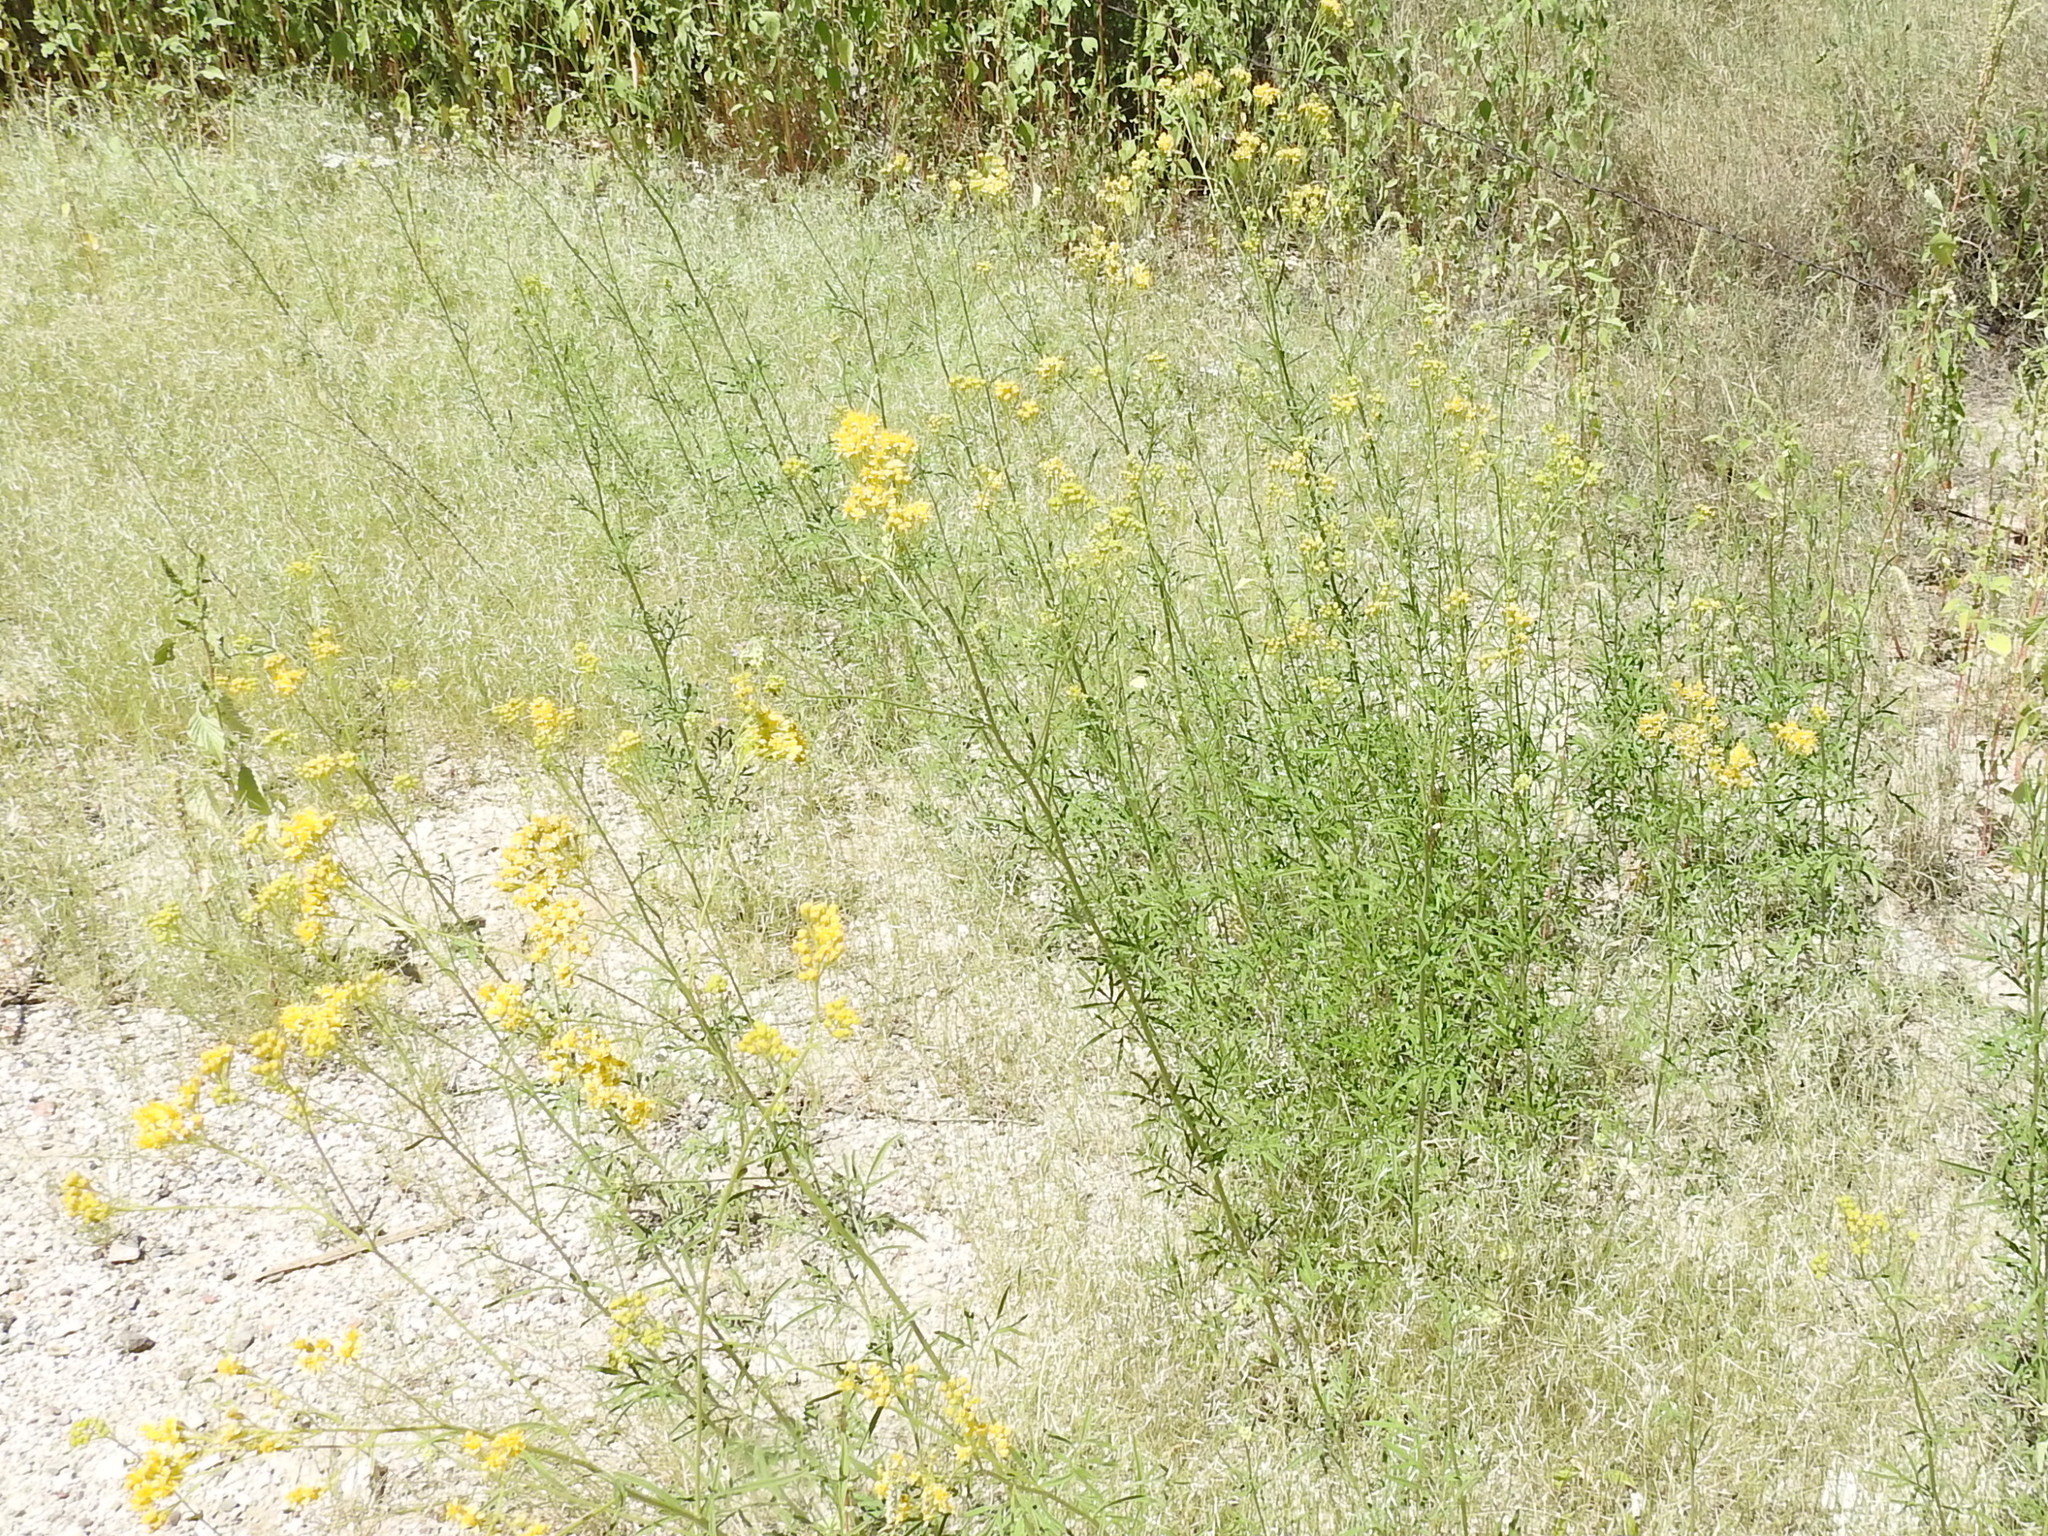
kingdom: Plantae
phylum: Tracheophyta
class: Magnoliopsida
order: Asterales
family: Asteraceae
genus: Hymenothrix
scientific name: Hymenothrix wislizeni
